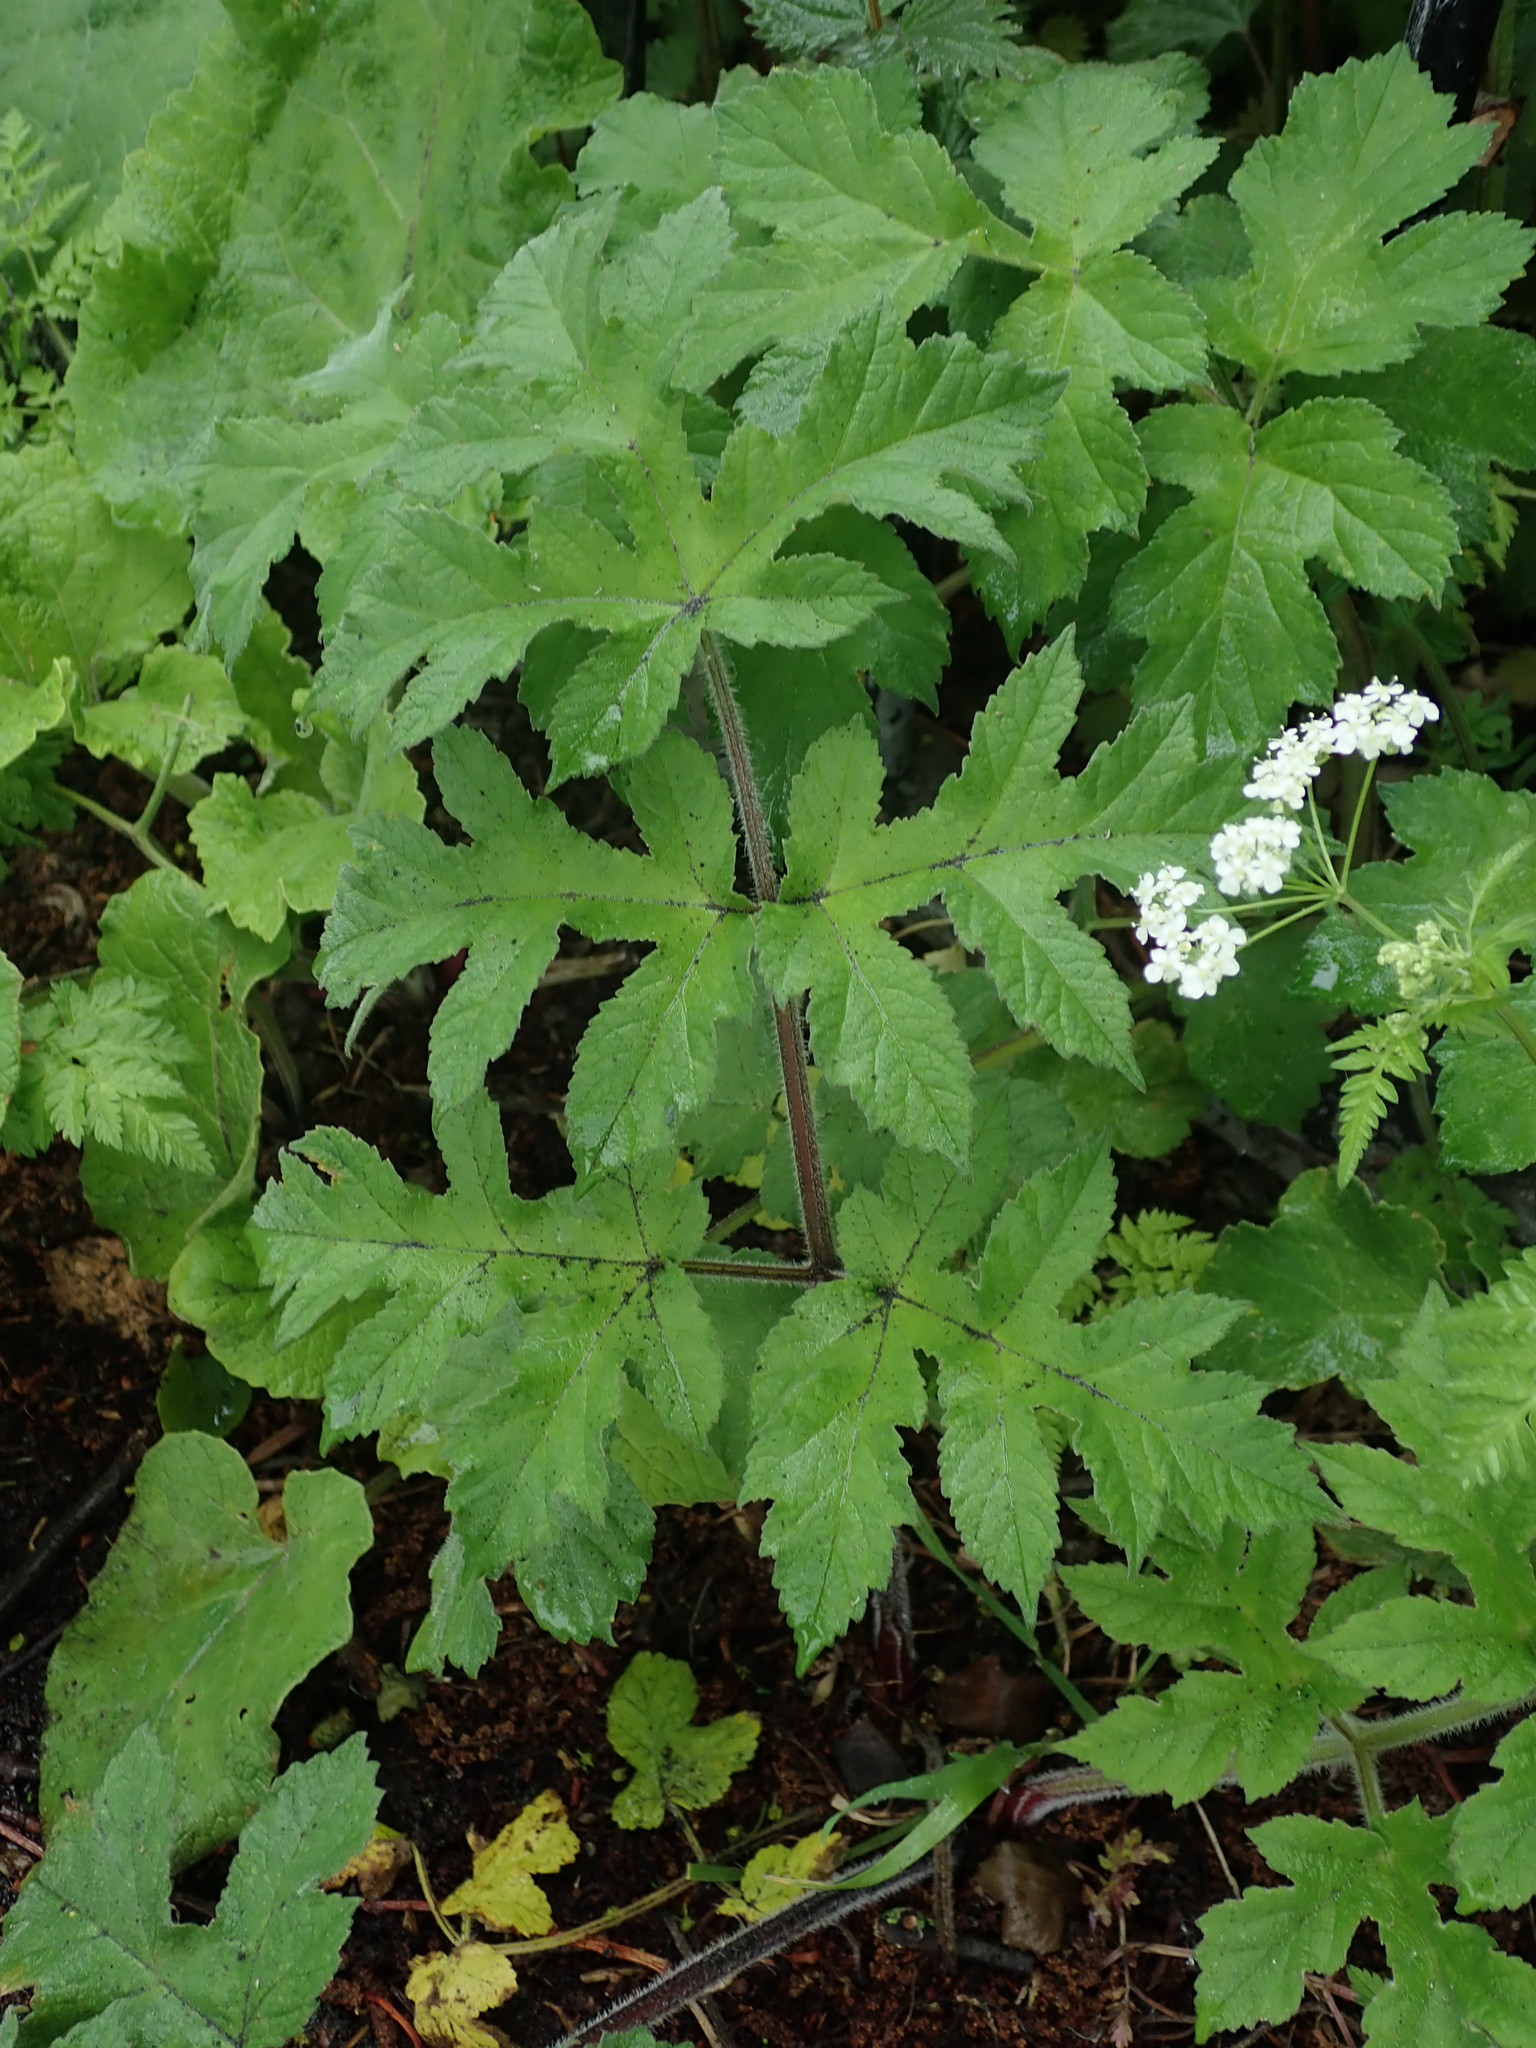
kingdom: Plantae
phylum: Tracheophyta
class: Magnoliopsida
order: Apiales
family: Apiaceae
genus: Heracleum
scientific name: Heracleum sphondylium
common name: Hogweed
